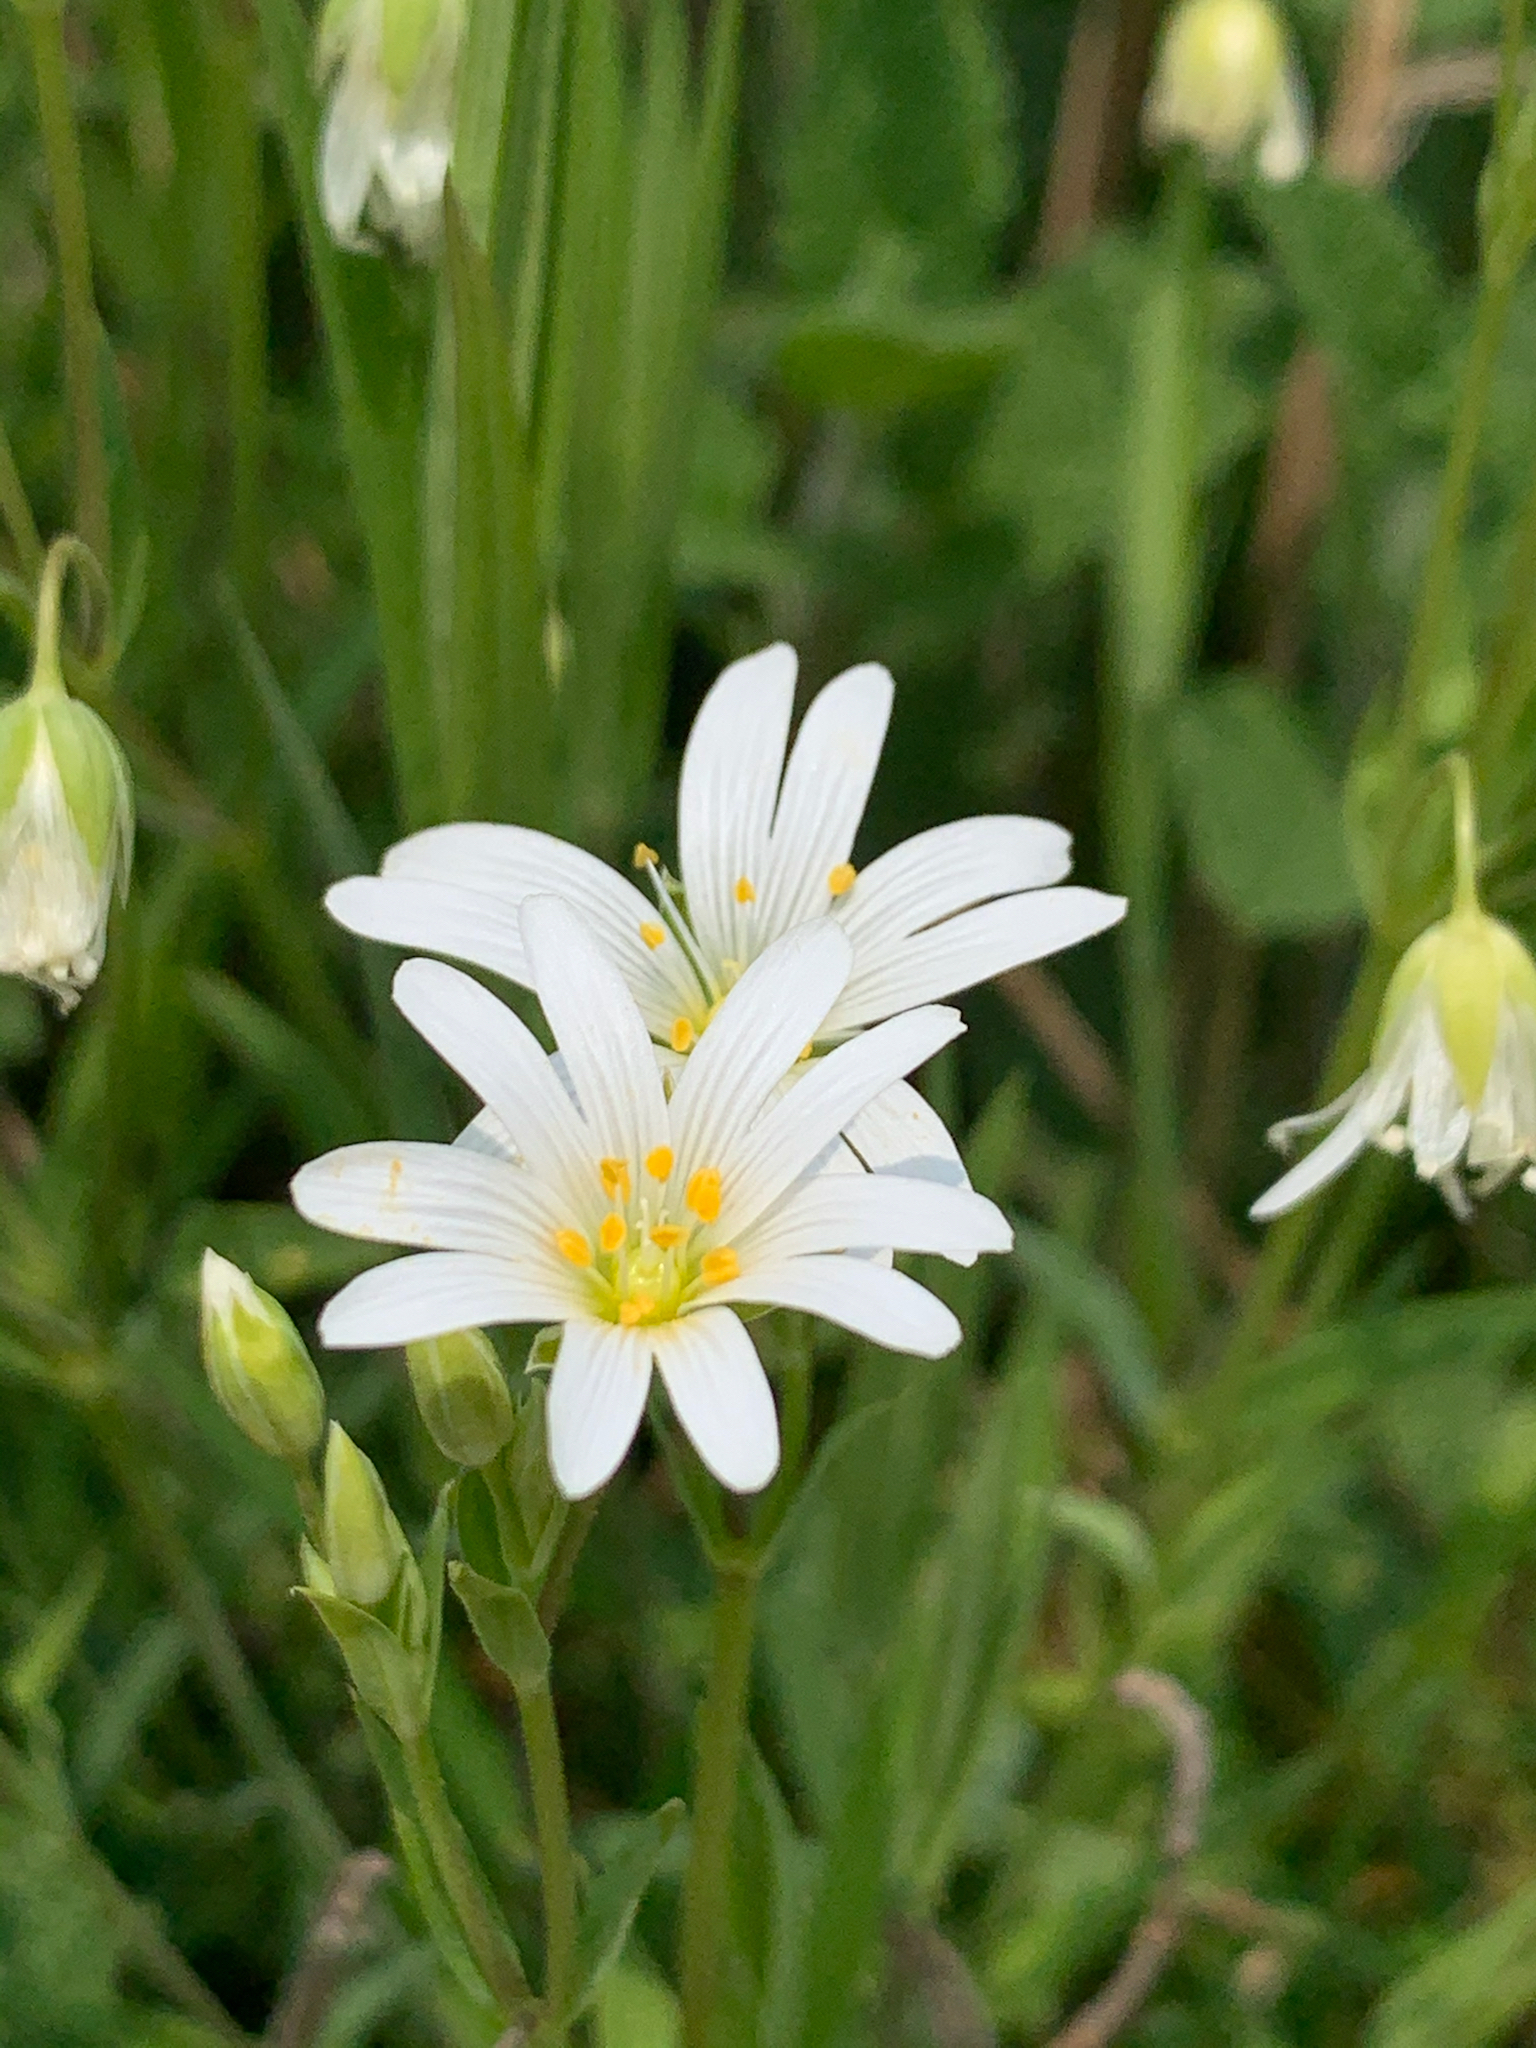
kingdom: Plantae
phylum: Tracheophyta
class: Magnoliopsida
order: Caryophyllales
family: Caryophyllaceae
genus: Rabelera
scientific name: Rabelera holostea
